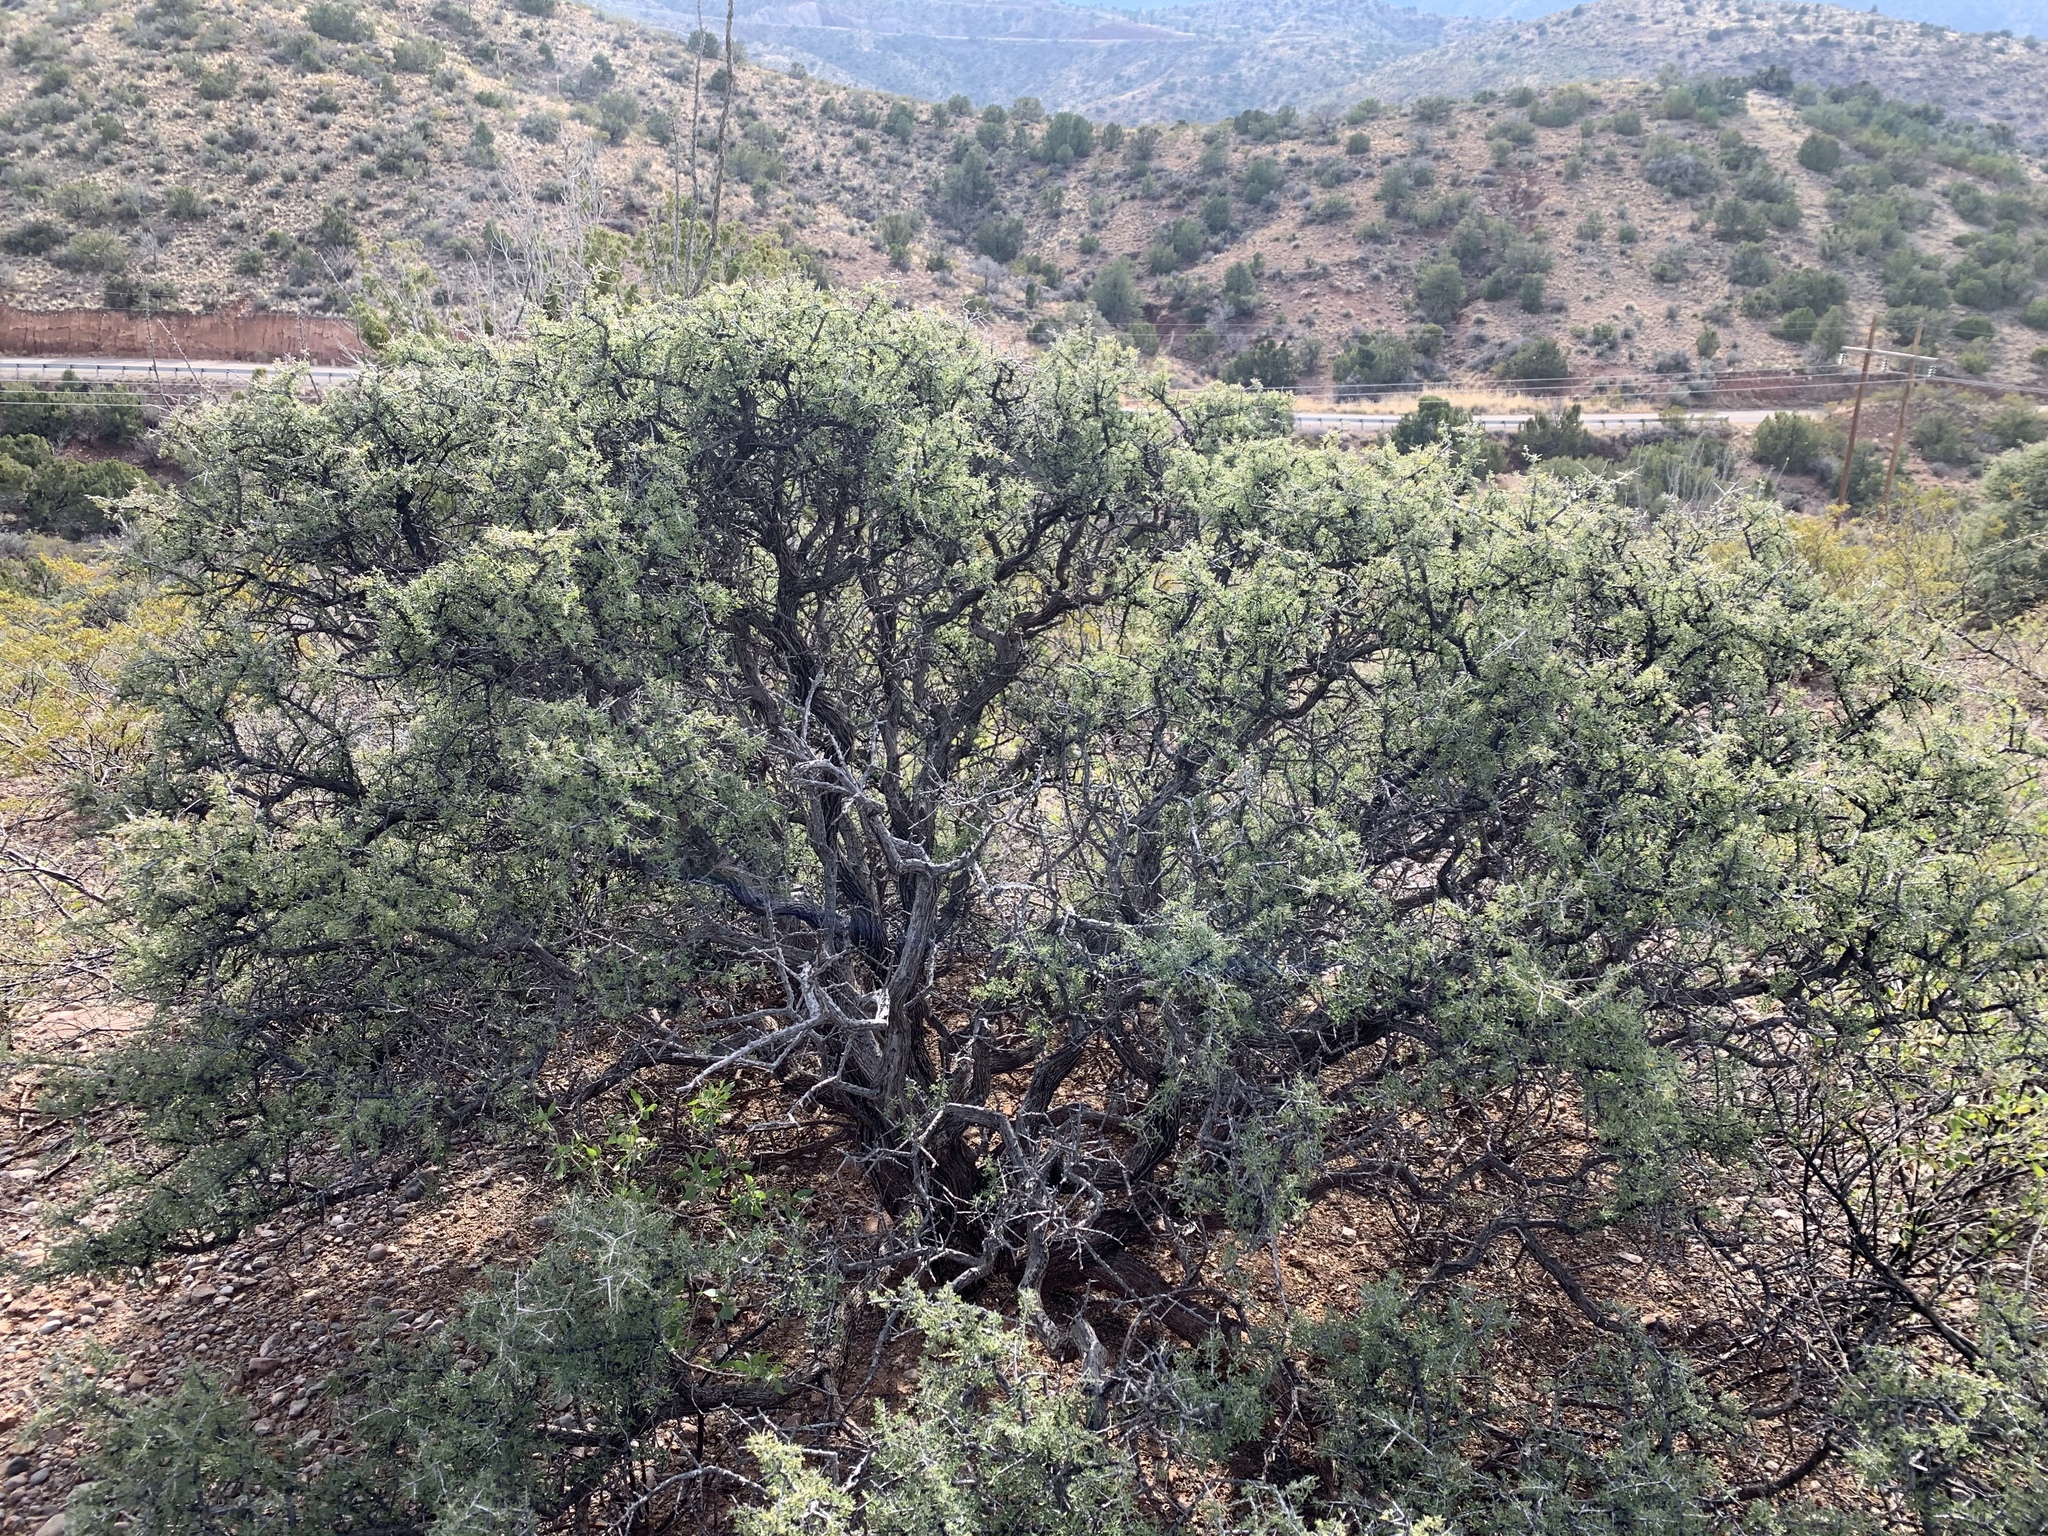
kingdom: Plantae
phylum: Tracheophyta
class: Magnoliopsida
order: Rosales
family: Rhamnaceae
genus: Condalia
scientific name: Condalia warnockii
